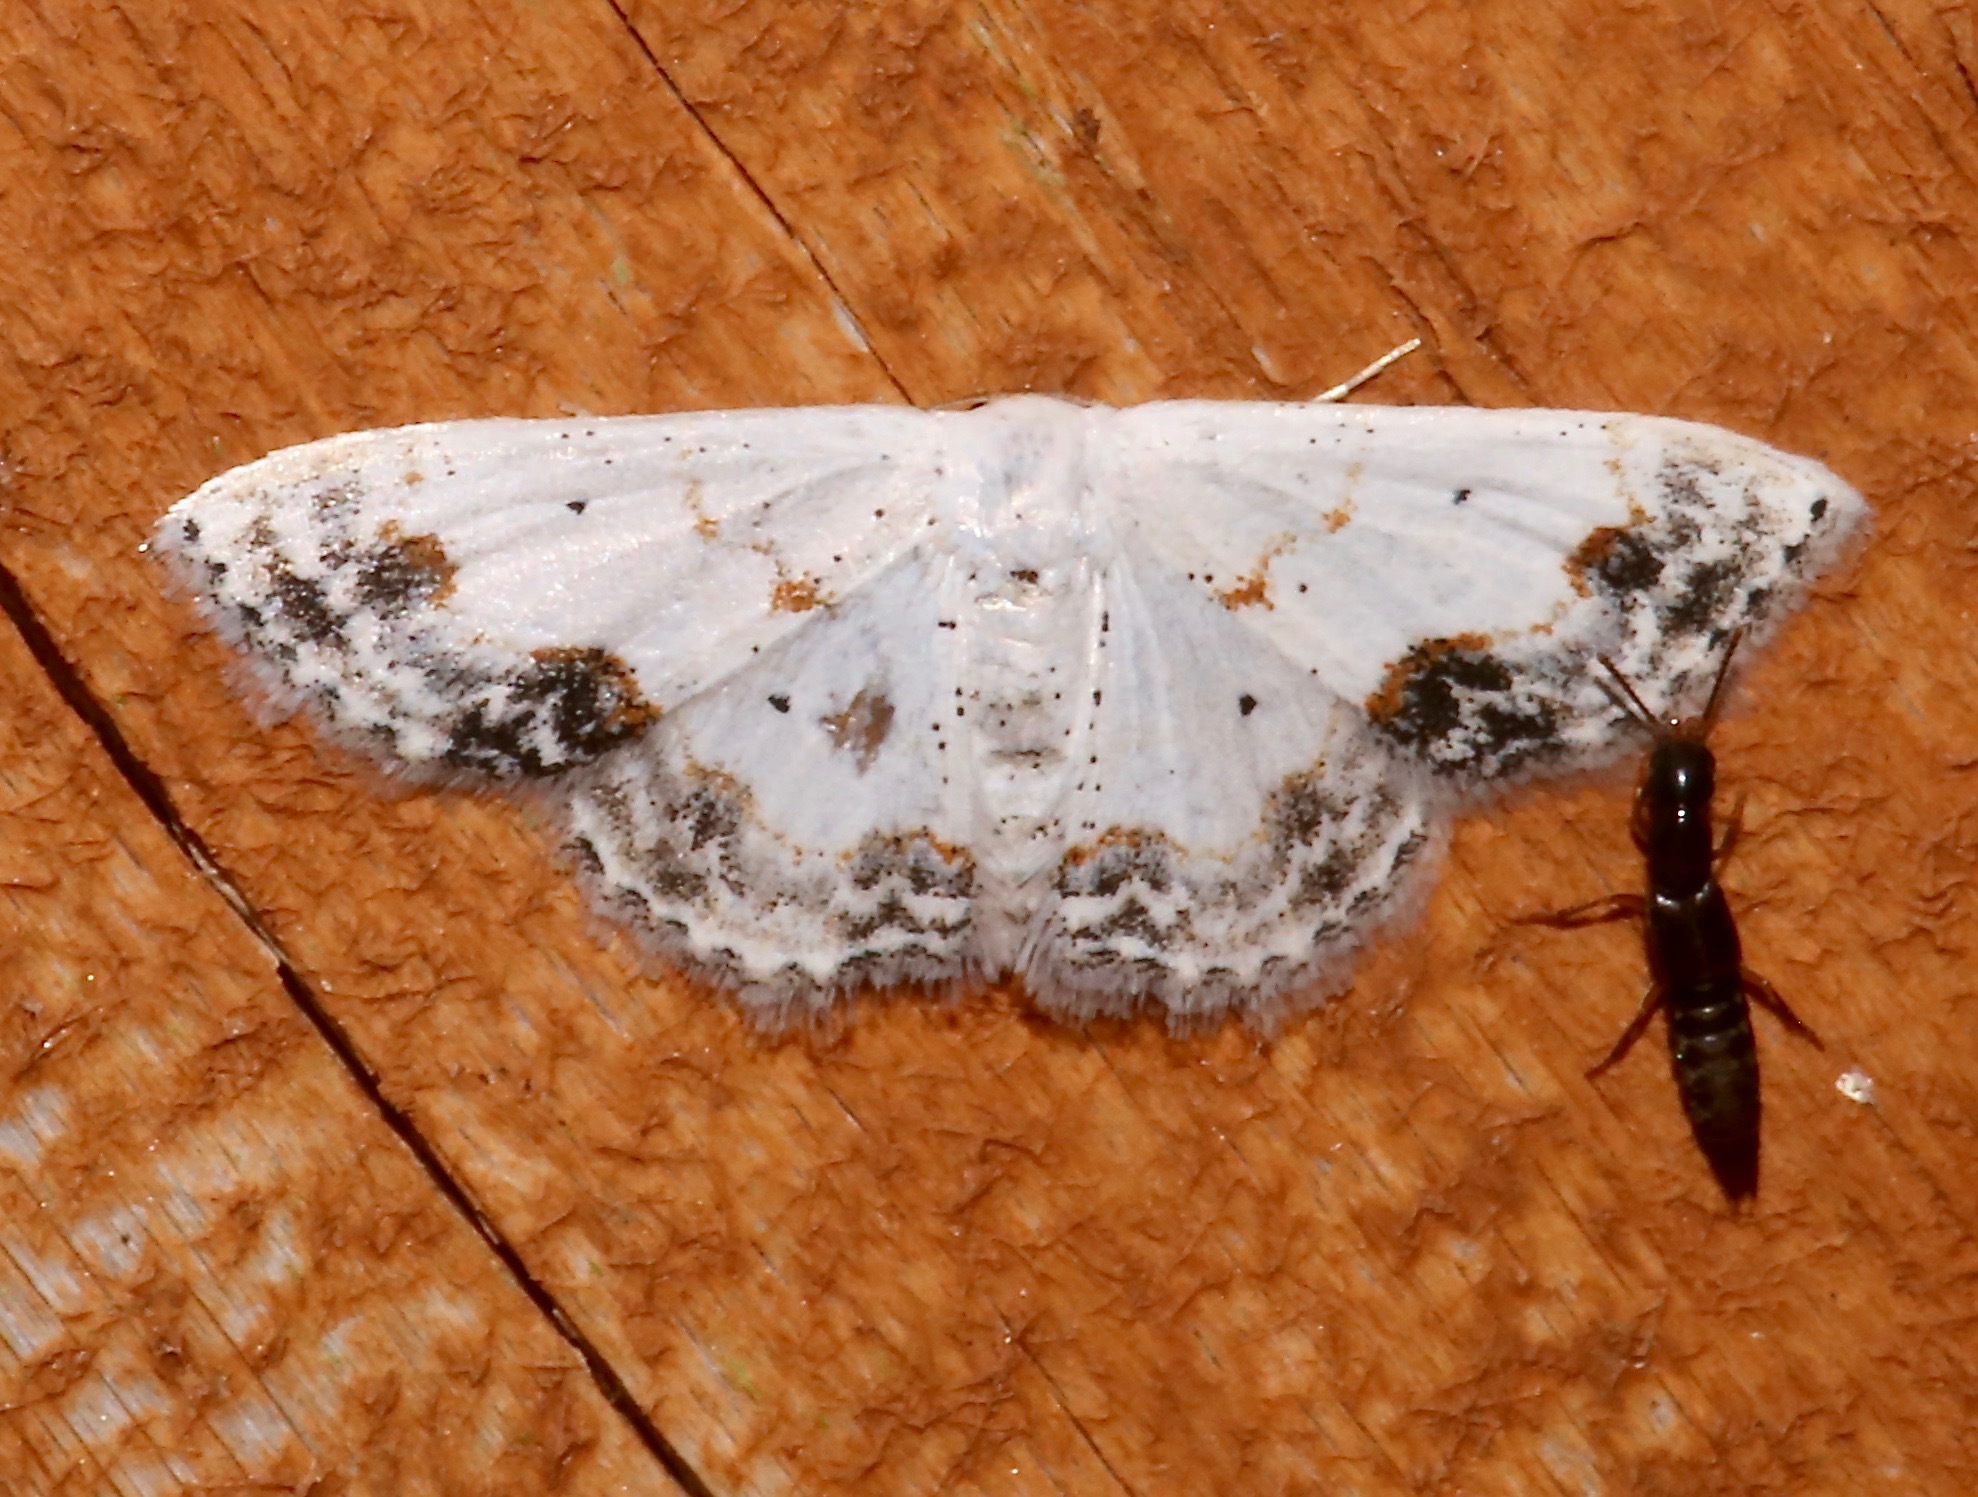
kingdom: Animalia
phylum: Arthropoda
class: Insecta
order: Lepidoptera
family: Geometridae
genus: Scopula
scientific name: Scopula lautaria
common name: Small frosted wave moth
